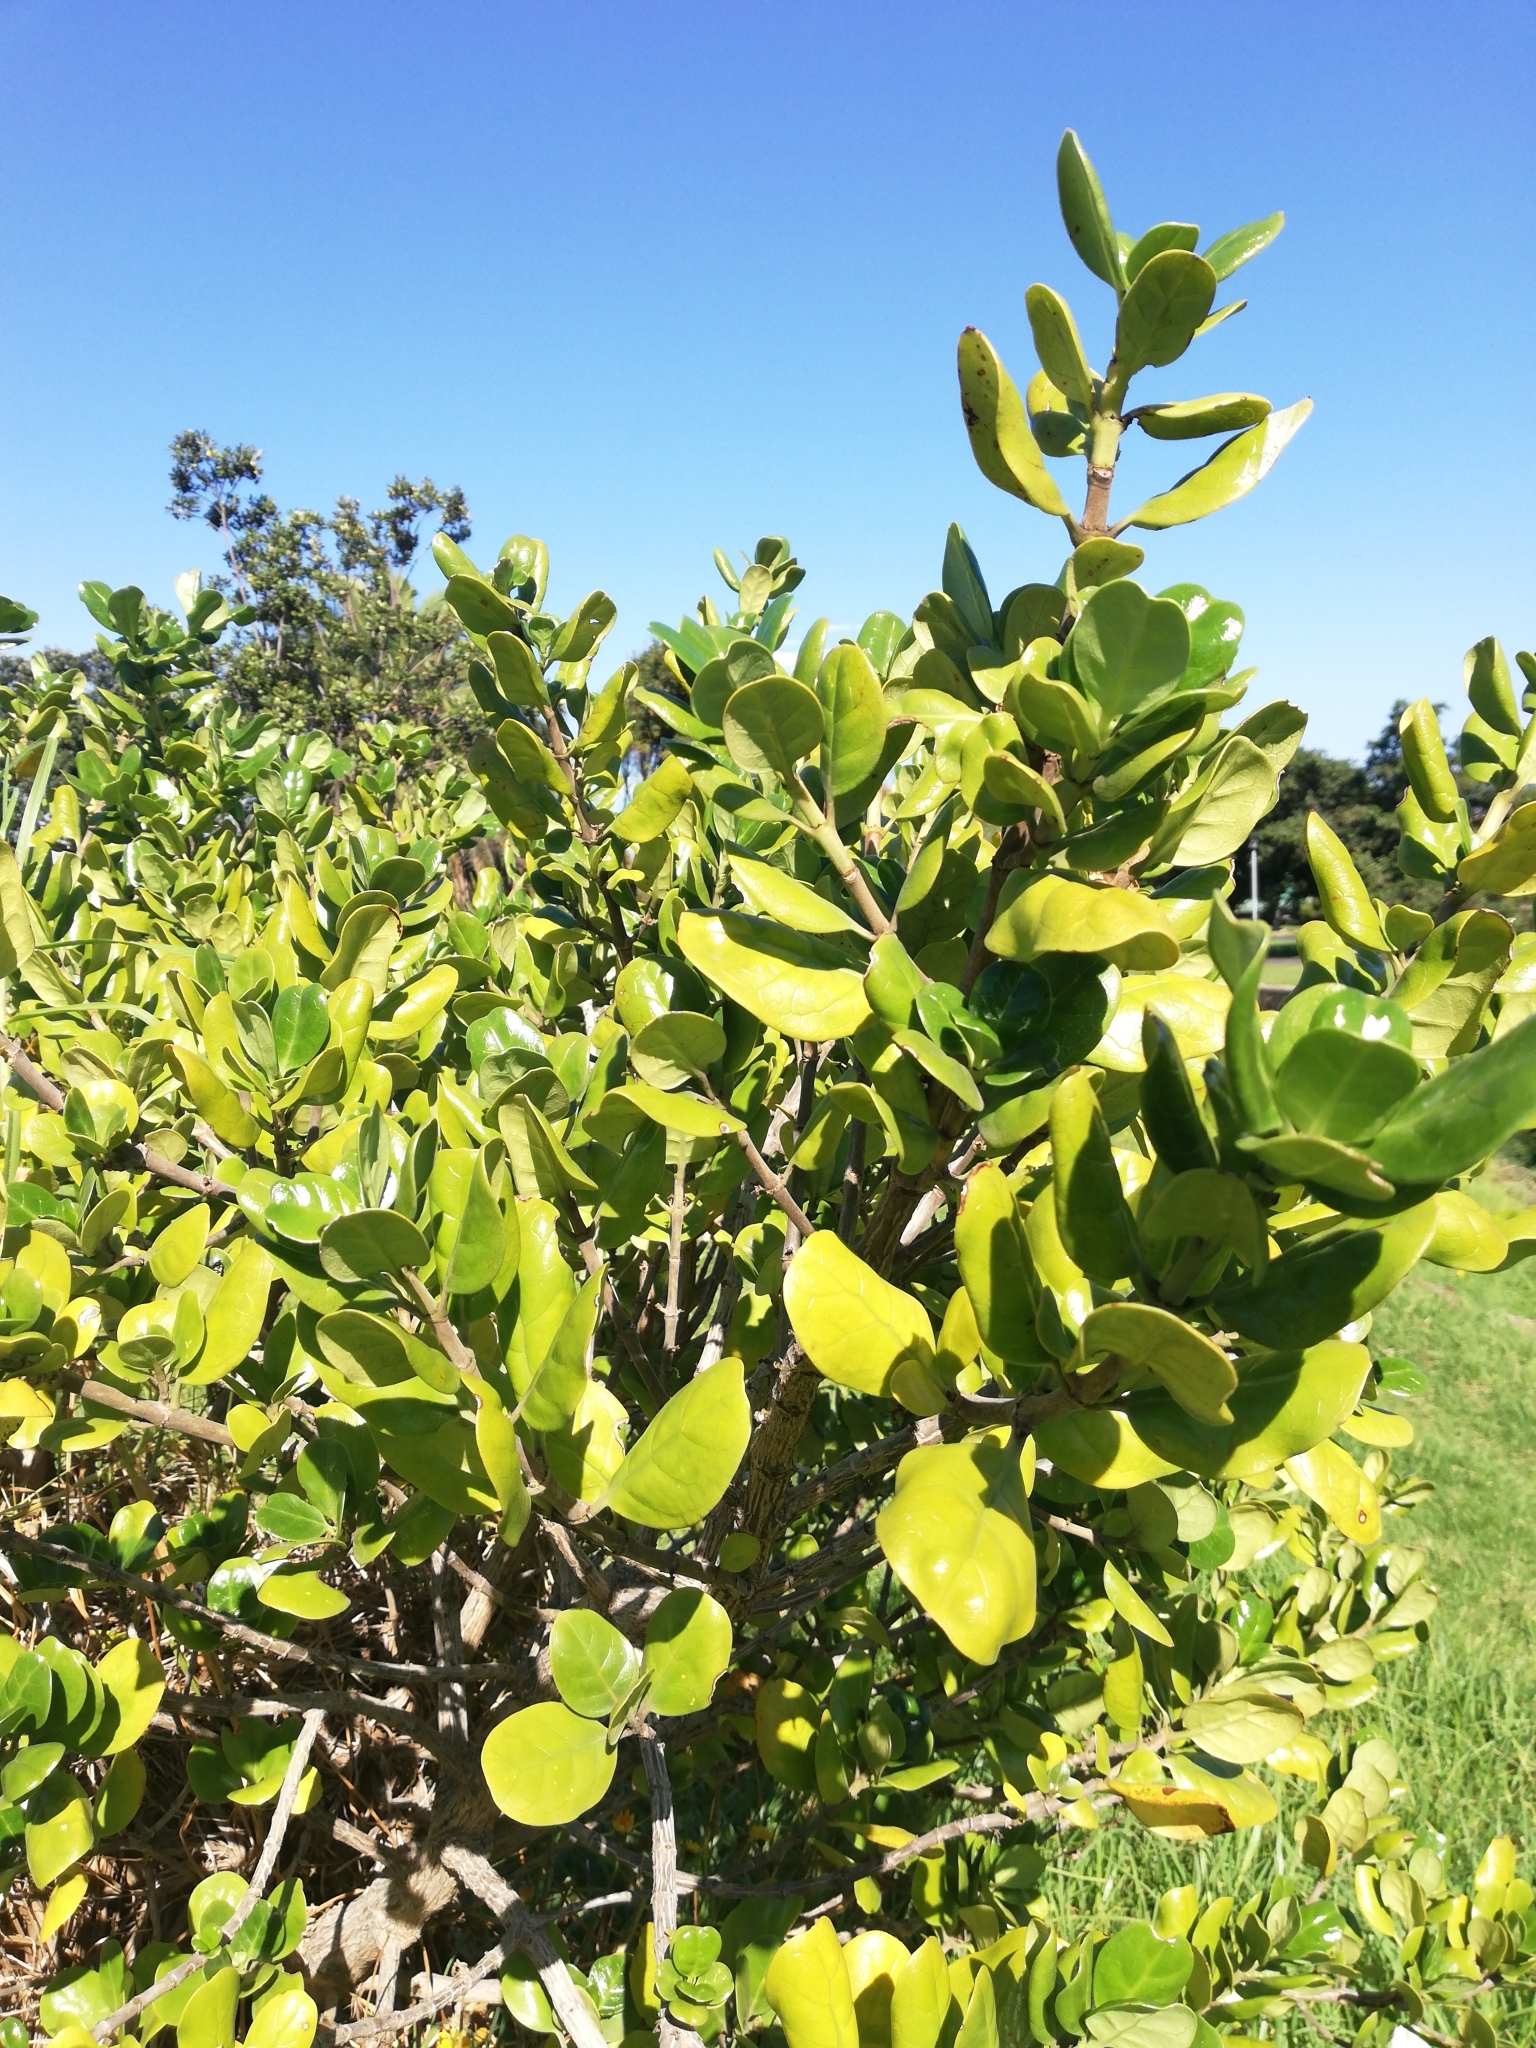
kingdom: Plantae
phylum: Tracheophyta
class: Magnoliopsida
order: Gentianales
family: Rubiaceae
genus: Coprosma
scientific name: Coprosma repens
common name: Tree bedstraw
